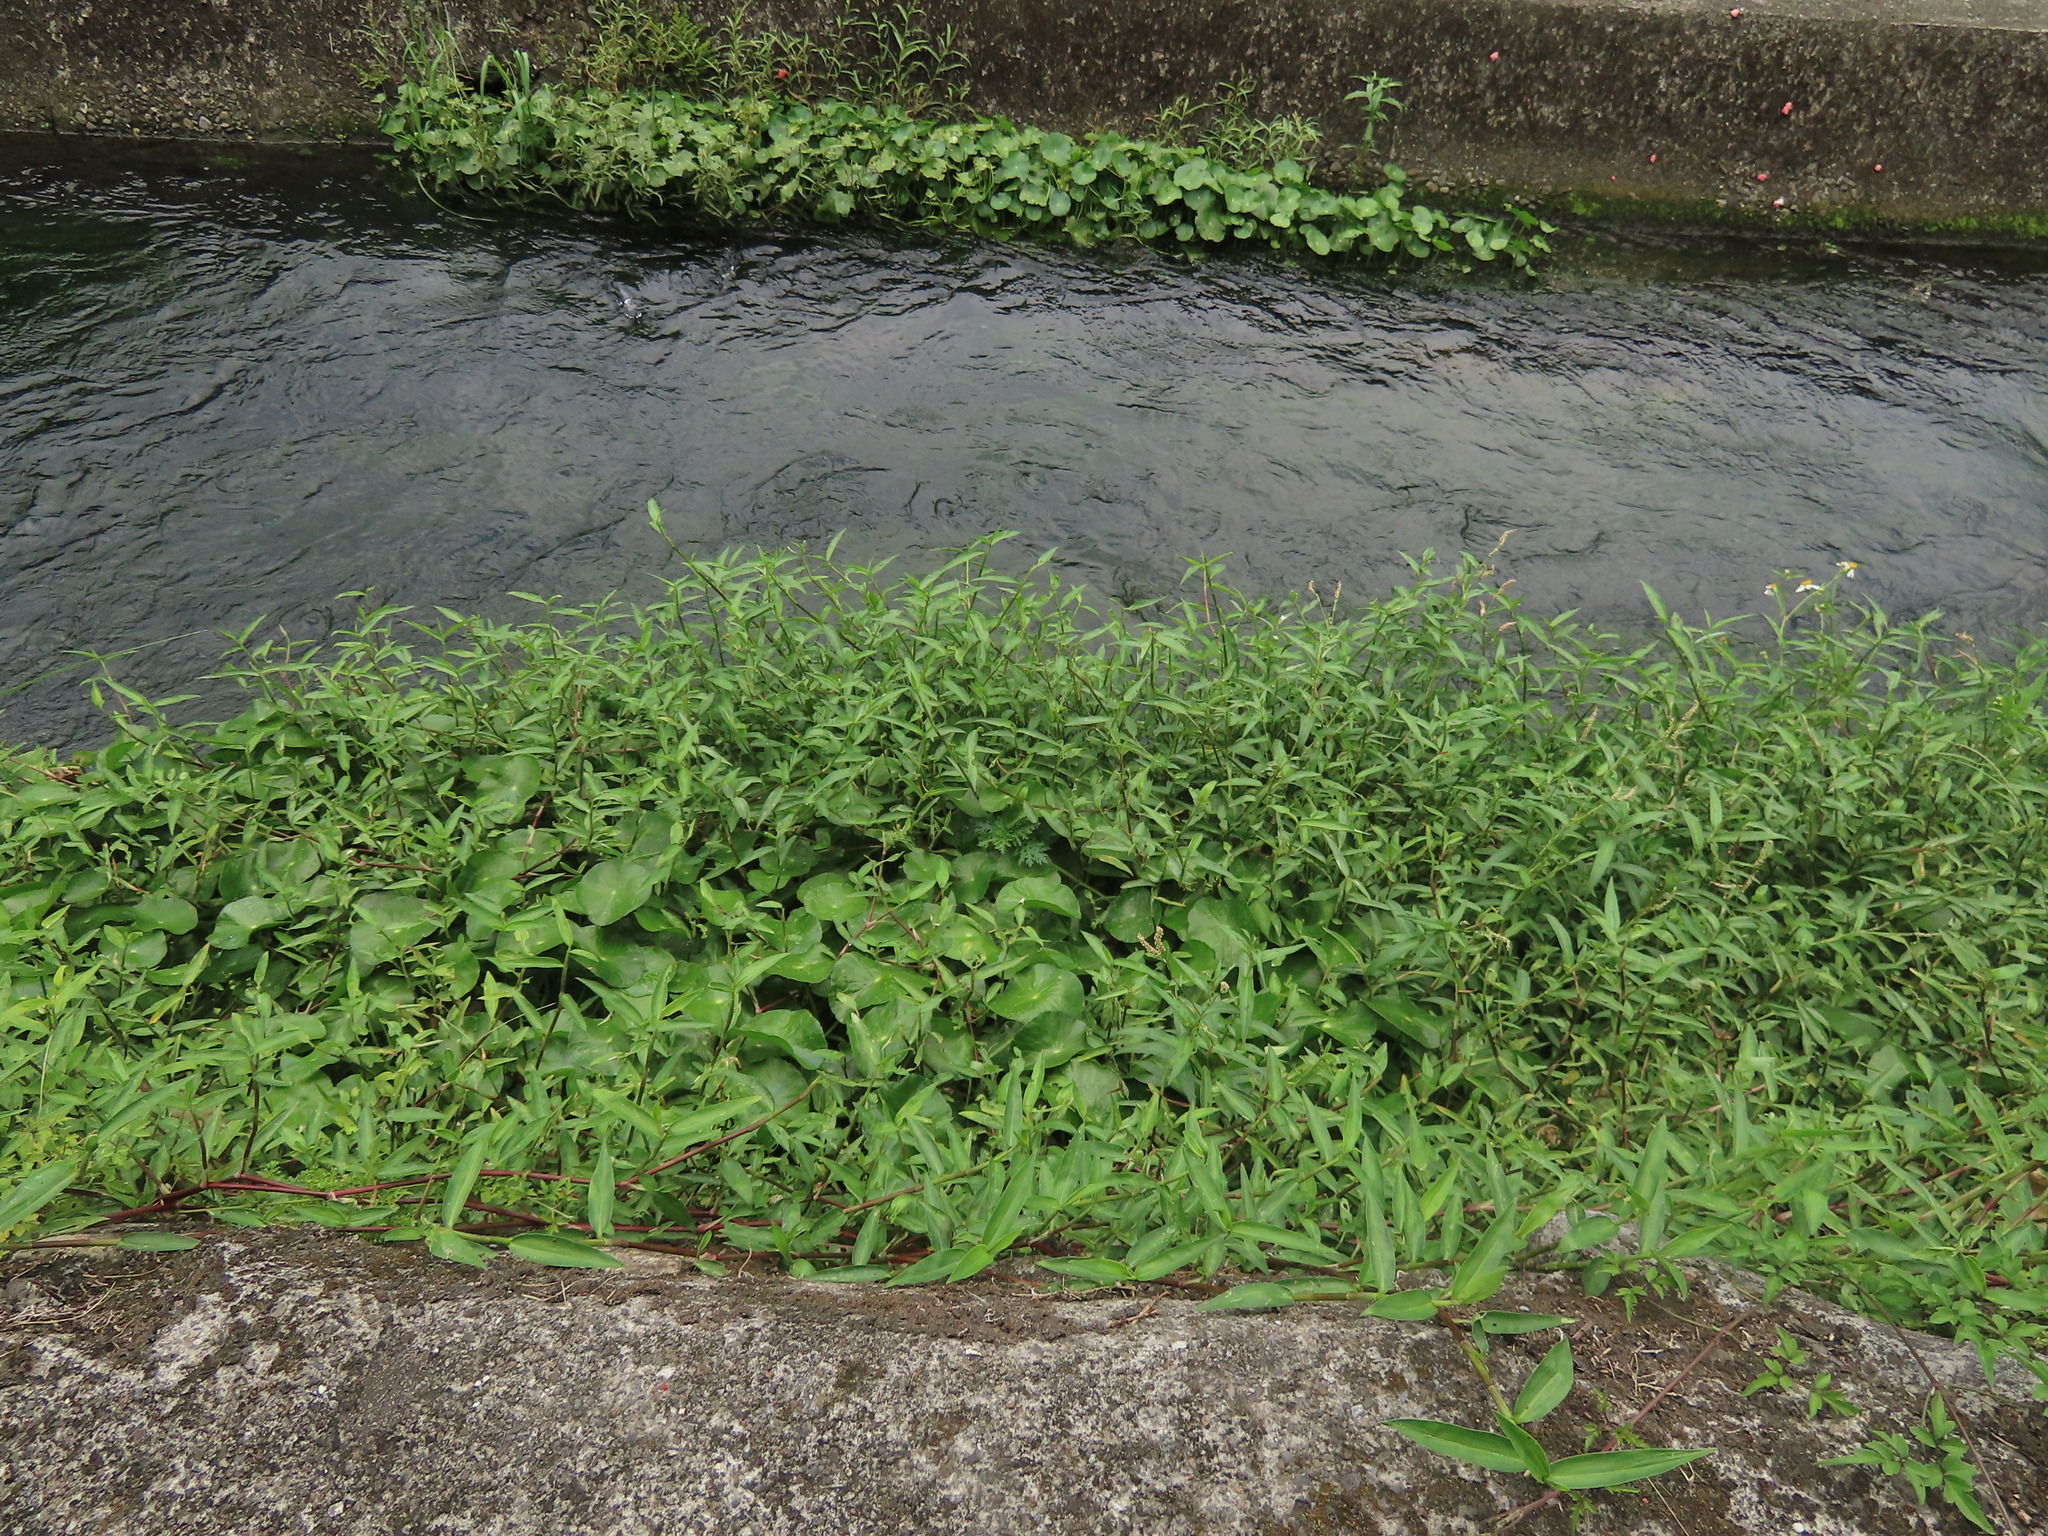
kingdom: Plantae
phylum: Tracheophyta
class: Magnoliopsida
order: Lamiales
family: Acanthaceae
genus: Hygrophila
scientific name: Hygrophila difformis
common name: Water-wisteria
